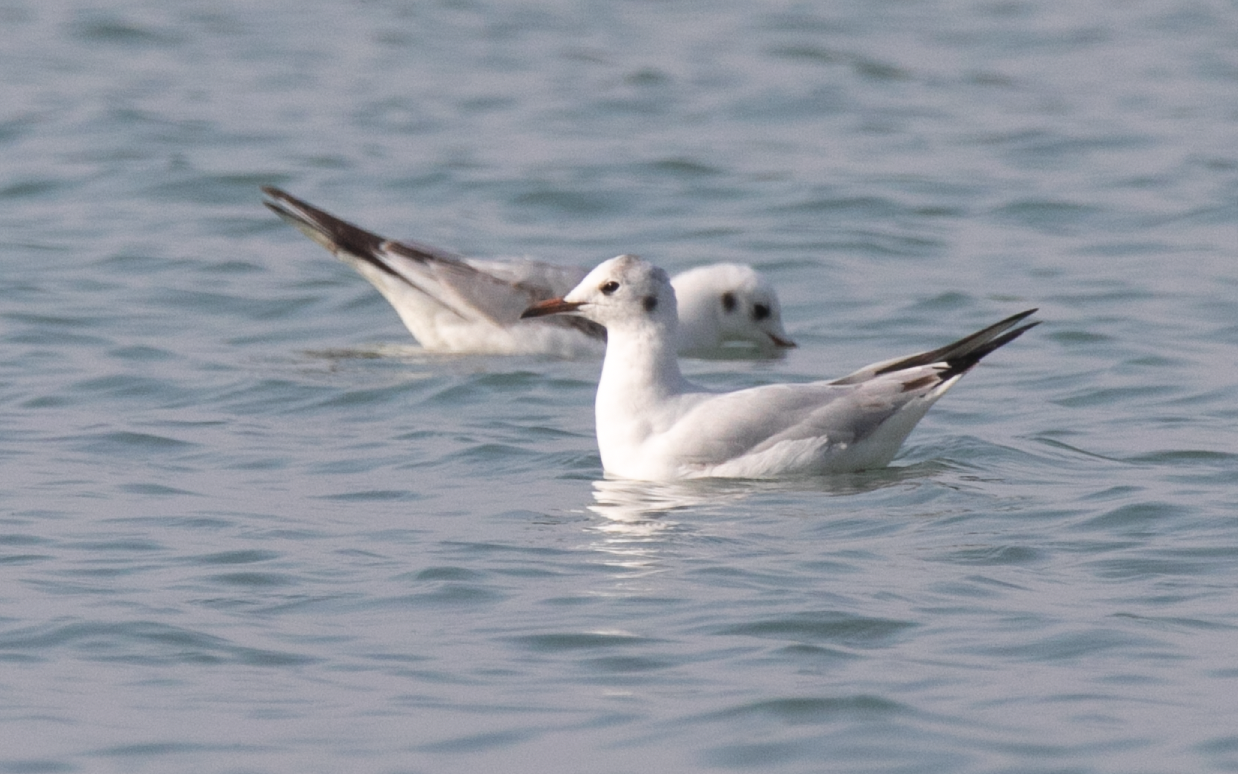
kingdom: Animalia
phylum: Chordata
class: Aves
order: Charadriiformes
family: Laridae
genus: Chroicocephalus
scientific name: Chroicocephalus ridibundus
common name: Black-headed gull
